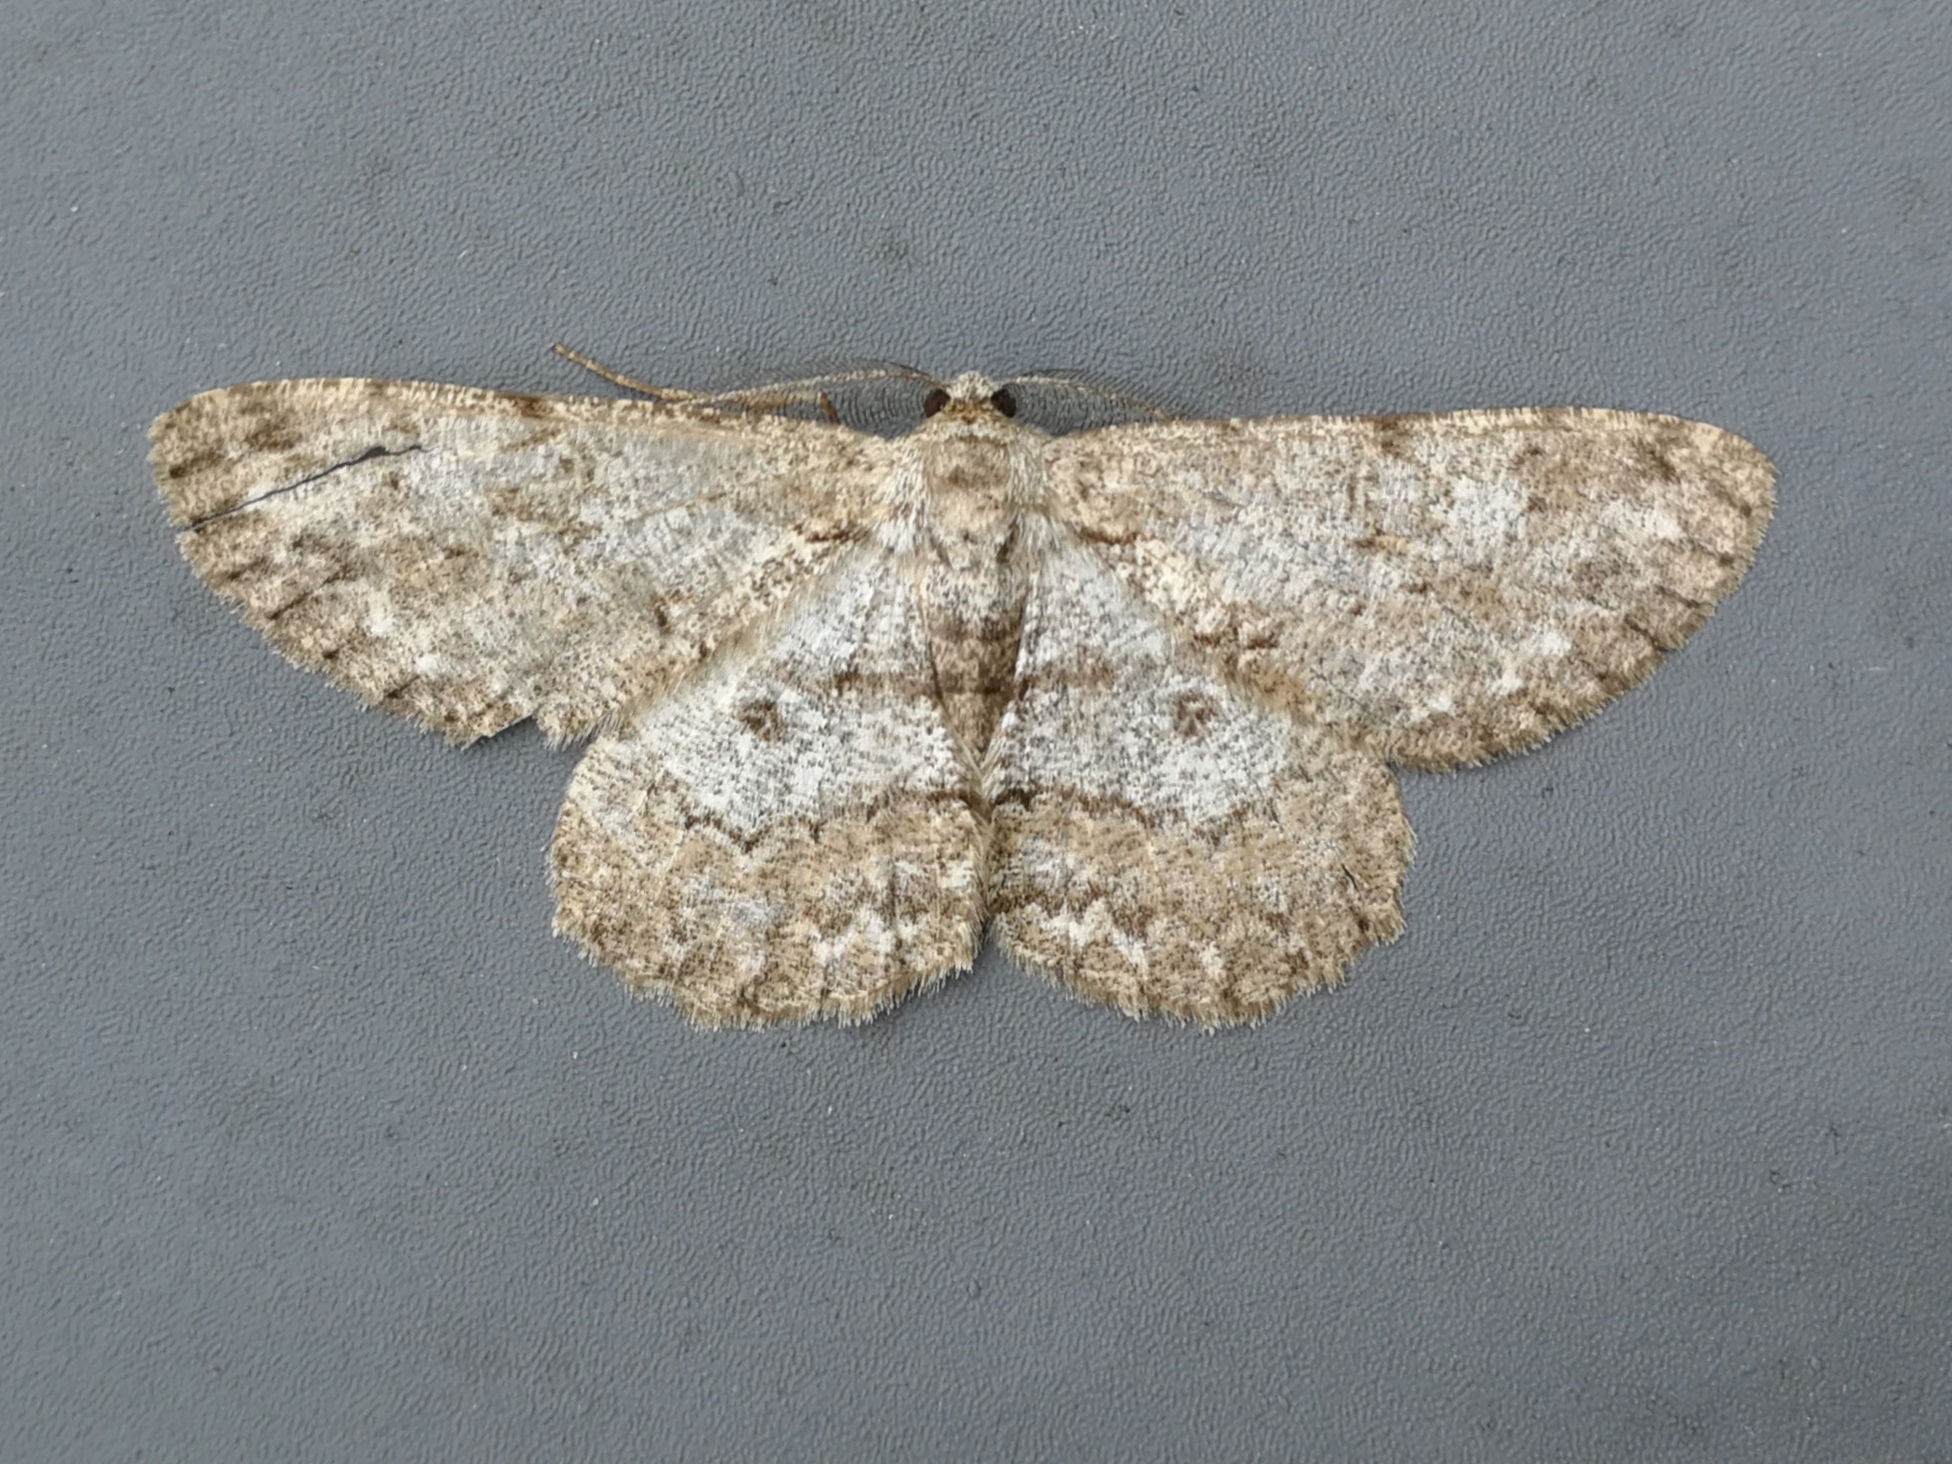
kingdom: Animalia
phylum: Arthropoda
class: Insecta
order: Lepidoptera
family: Geometridae
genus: Hypomecis
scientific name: Hypomecis punctinalis
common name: Pale oak beauty
